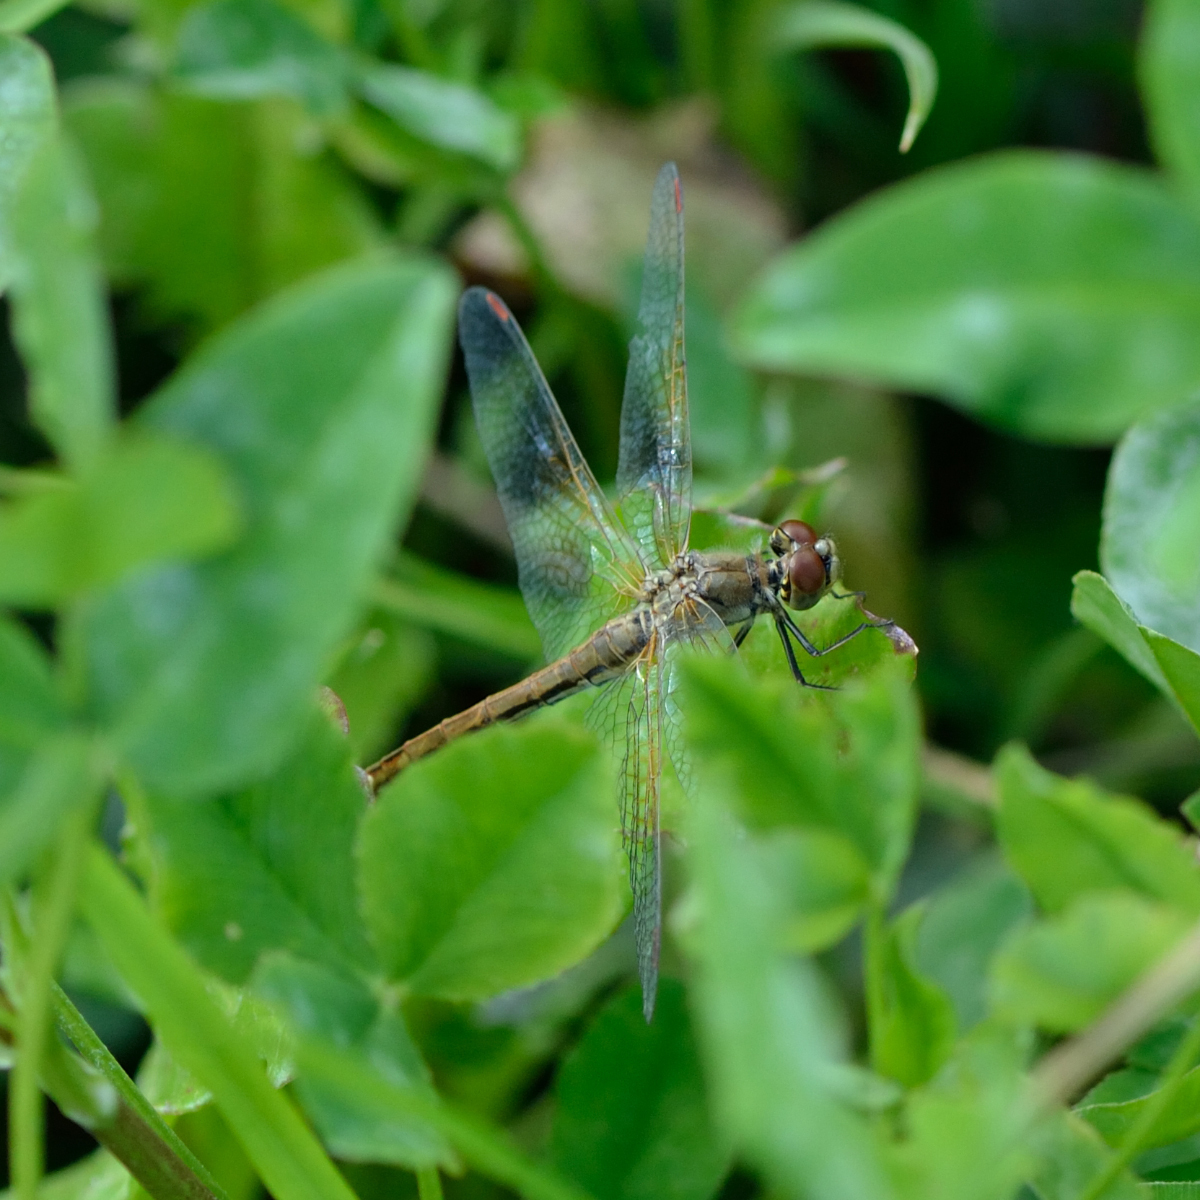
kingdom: Animalia
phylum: Arthropoda
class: Insecta
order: Odonata
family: Libellulidae
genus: Sympetrum
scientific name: Sympetrum flaveolum
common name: Yellow-winged darter
